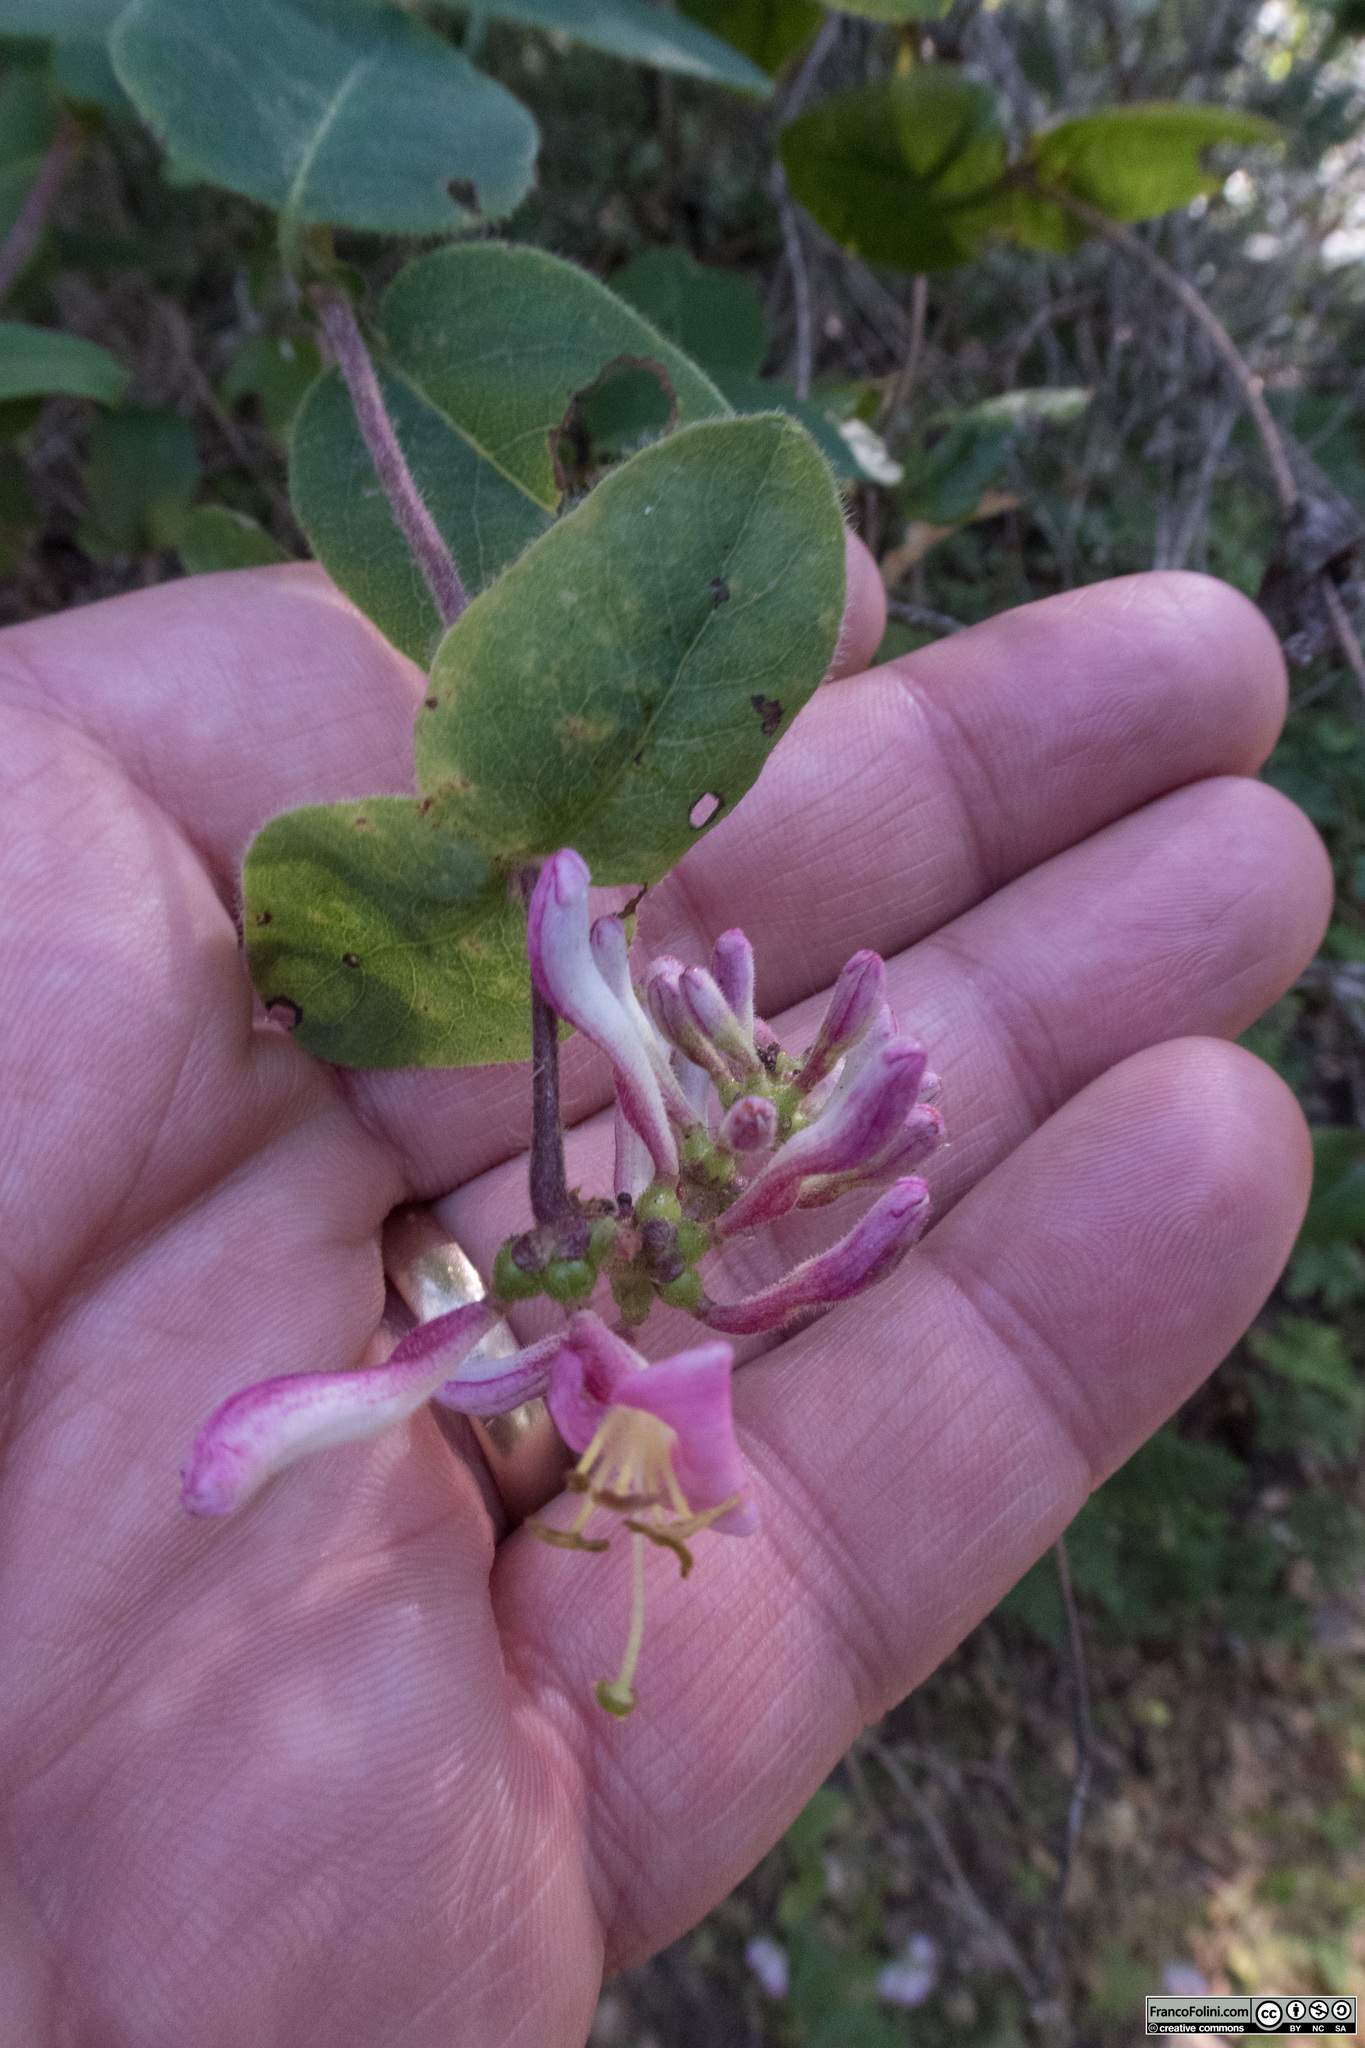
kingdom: Plantae
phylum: Tracheophyta
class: Magnoliopsida
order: Dipsacales
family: Caprifoliaceae
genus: Lonicera
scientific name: Lonicera hispidula
